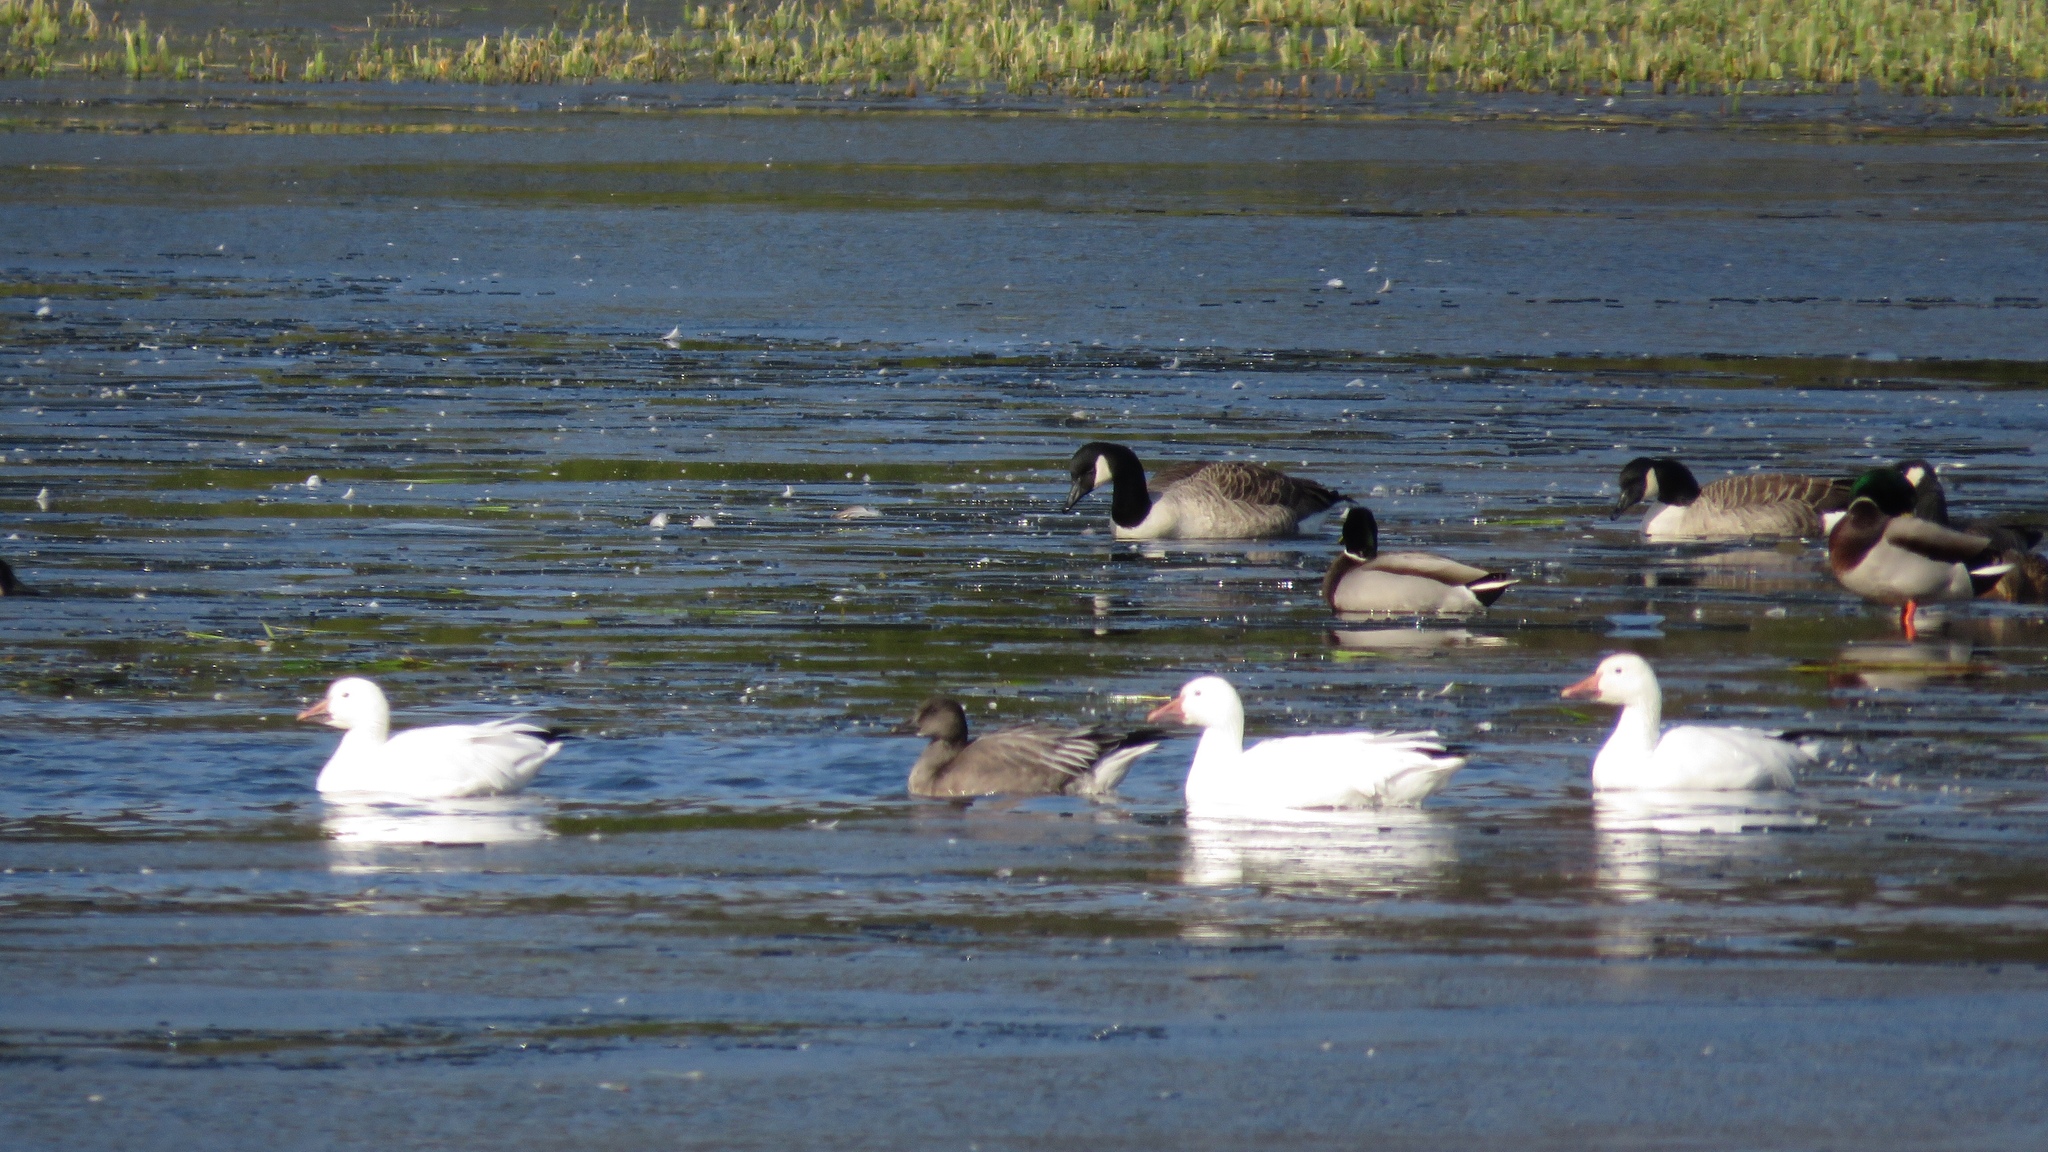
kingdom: Animalia
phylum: Chordata
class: Aves
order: Anseriformes
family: Anatidae
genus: Anser
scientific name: Anser caerulescens
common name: Snow goose
